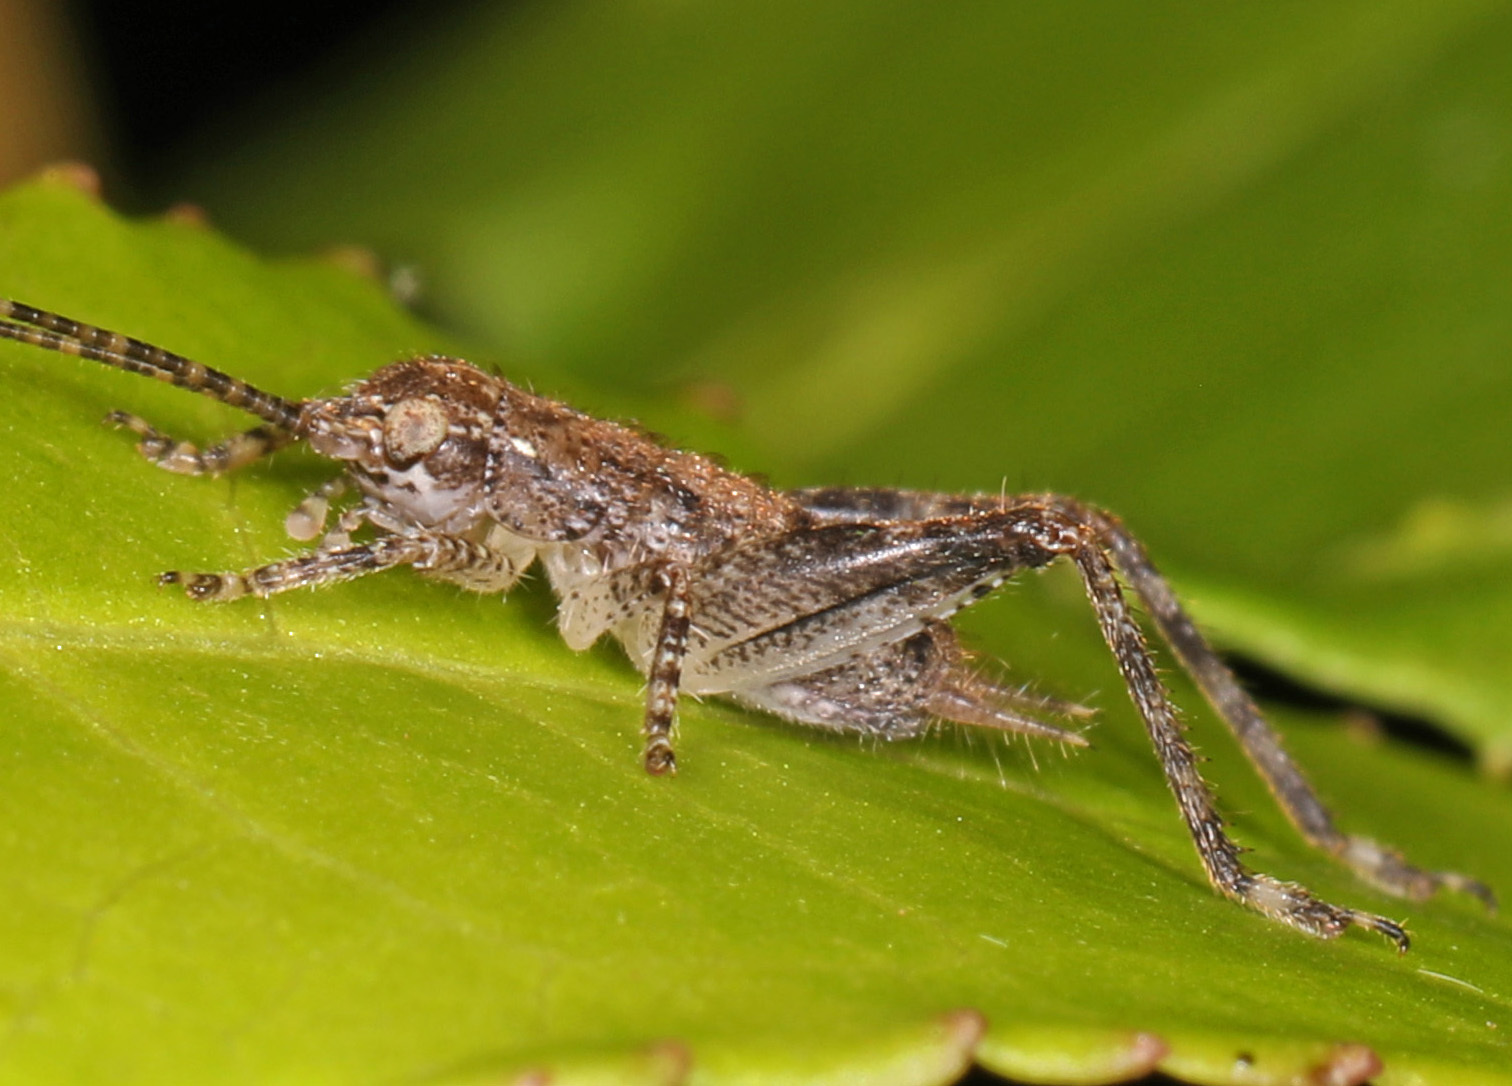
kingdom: Animalia
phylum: Arthropoda
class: Insecta
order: Orthoptera
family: Gryllidae
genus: Hapithus
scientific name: Hapithus saltator
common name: Jumping bush cricket
